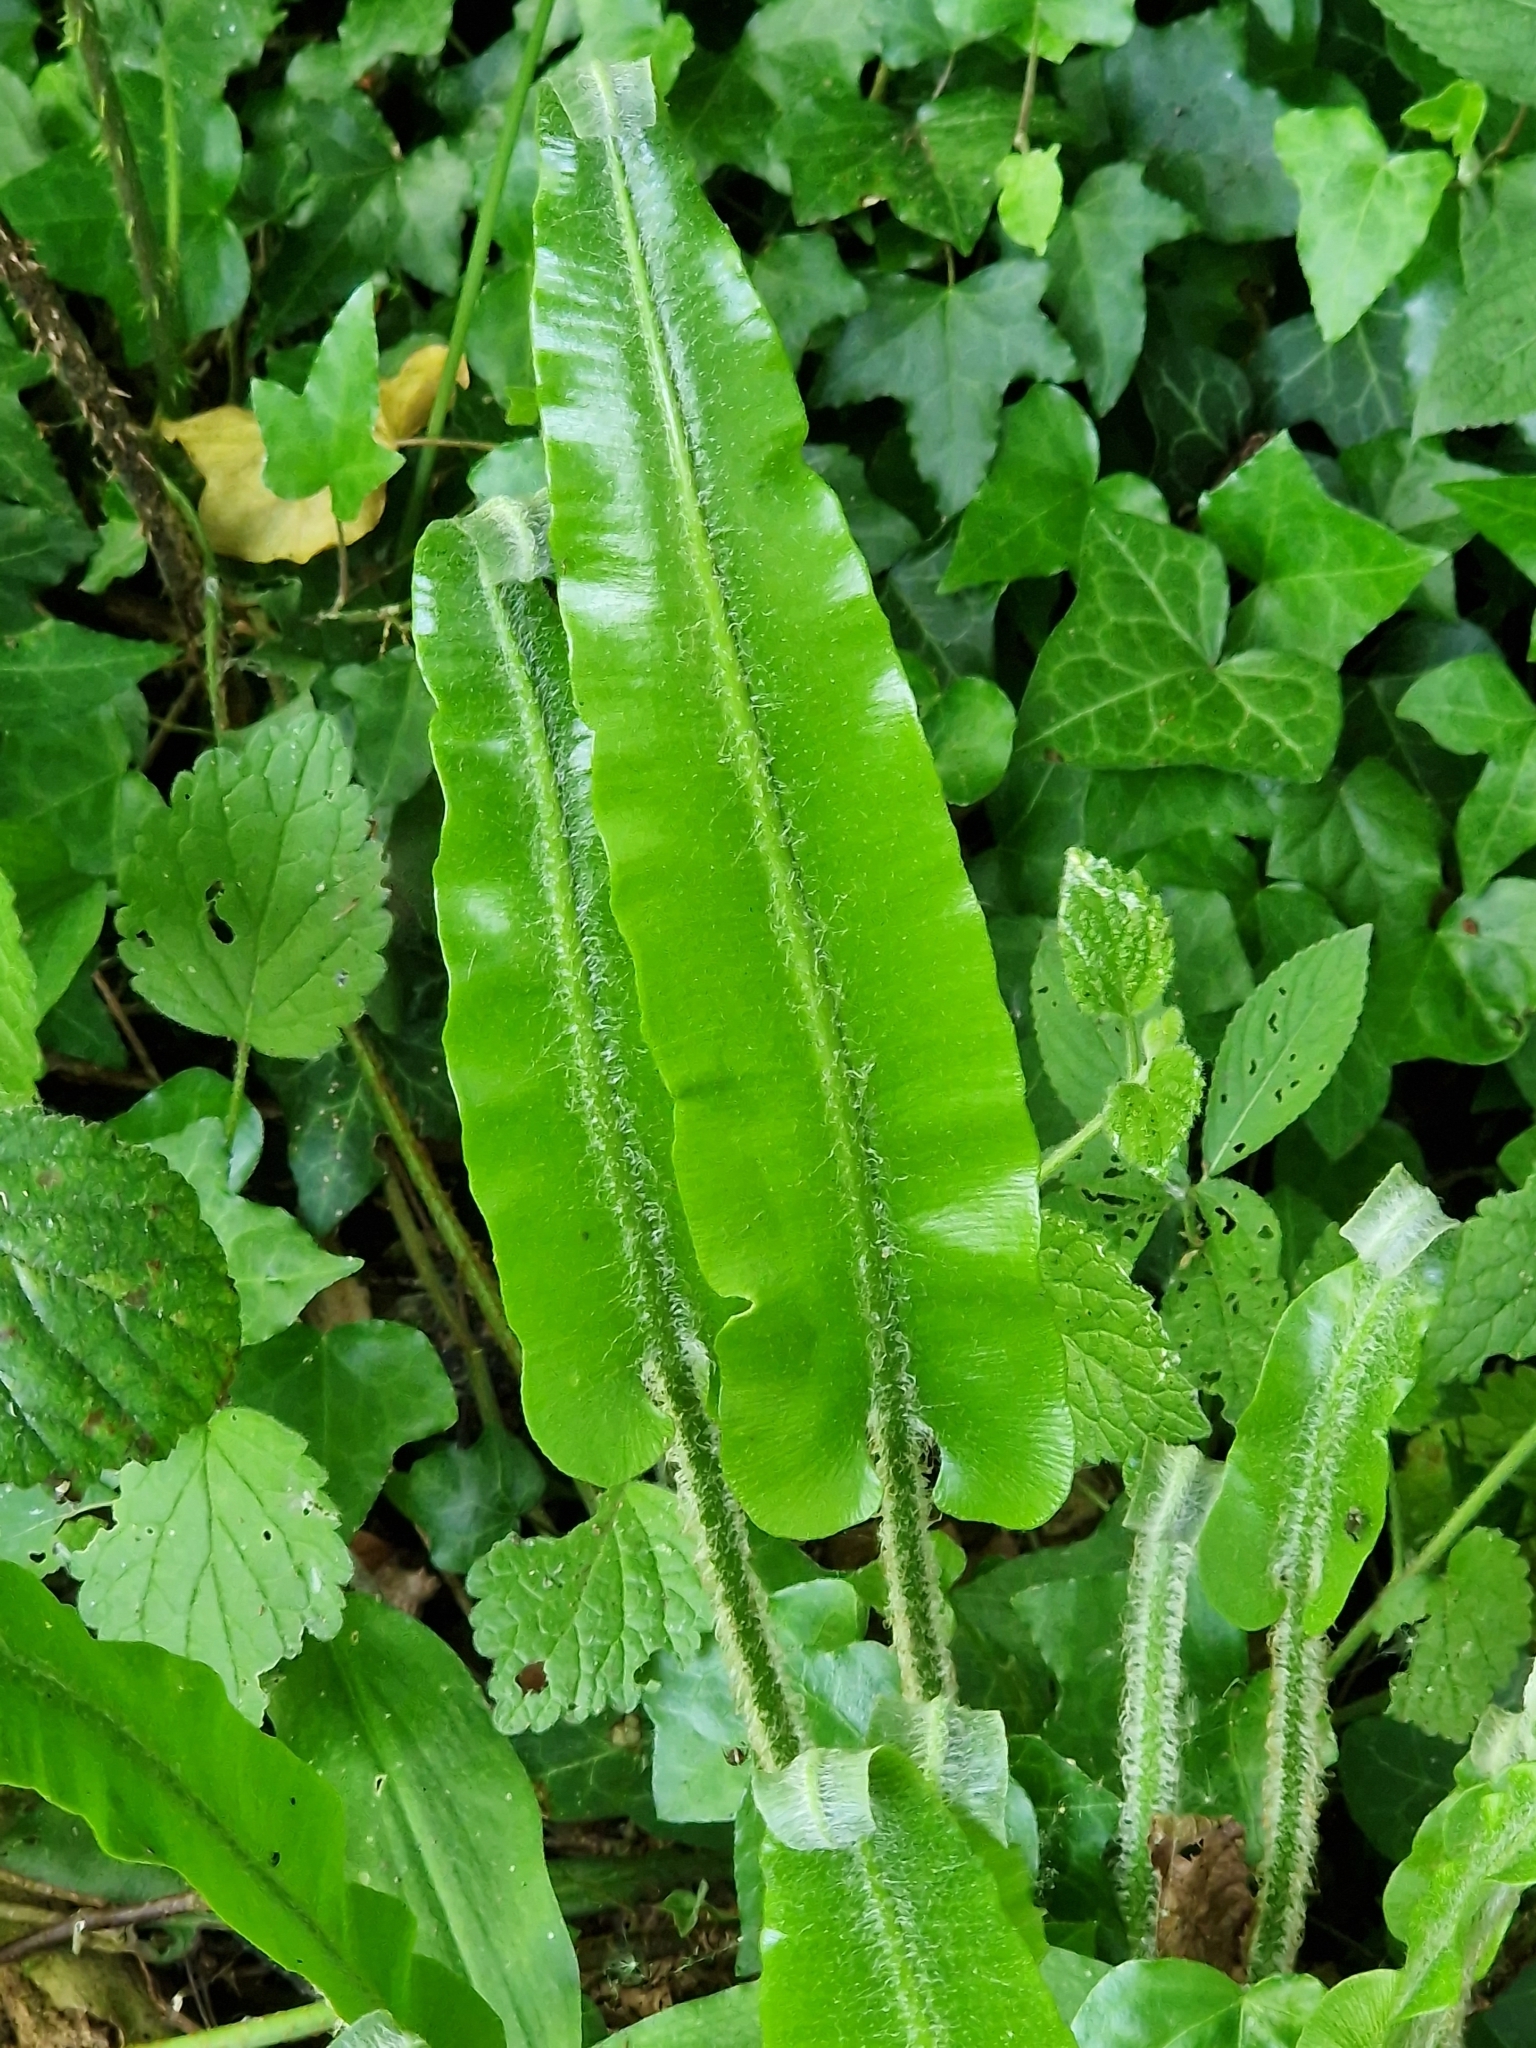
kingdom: Plantae
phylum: Tracheophyta
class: Polypodiopsida
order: Polypodiales
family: Aspleniaceae
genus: Asplenium
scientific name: Asplenium scolopendrium
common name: Hart's-tongue fern
